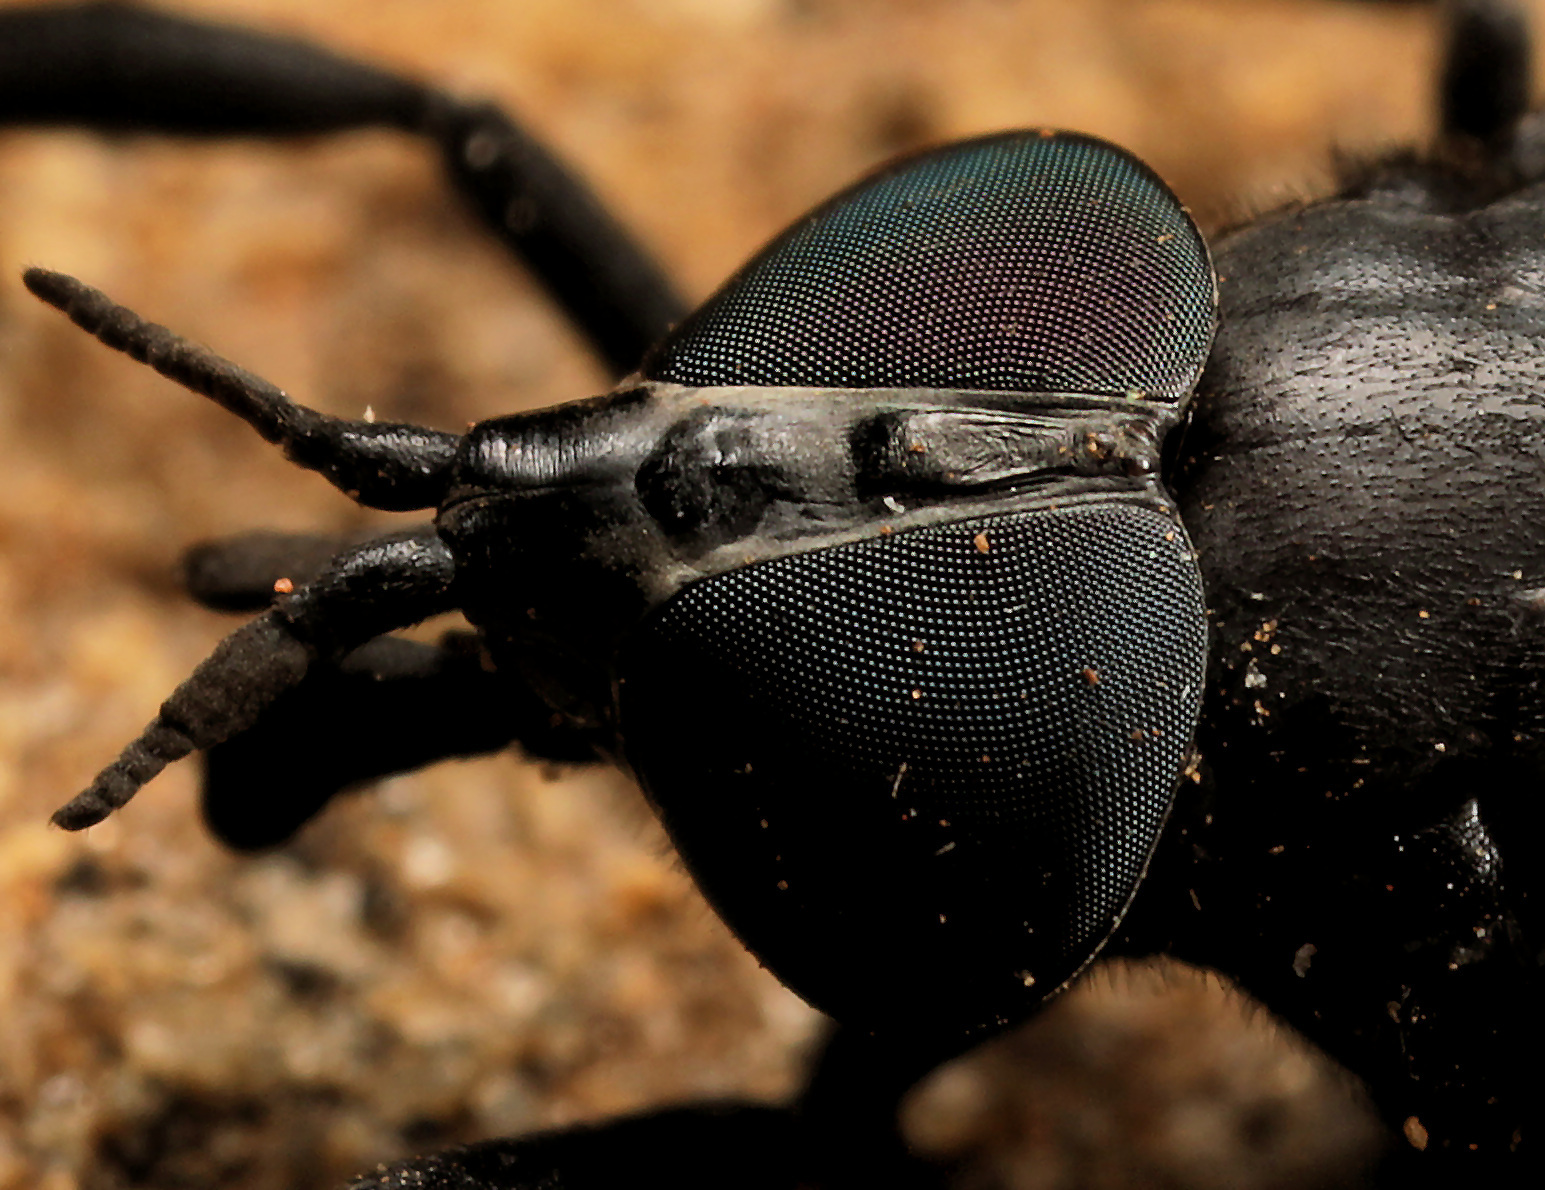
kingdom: Animalia
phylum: Arthropoda
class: Insecta
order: Diptera
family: Tabanidae
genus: Jashinea
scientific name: Jashinea lugubris
